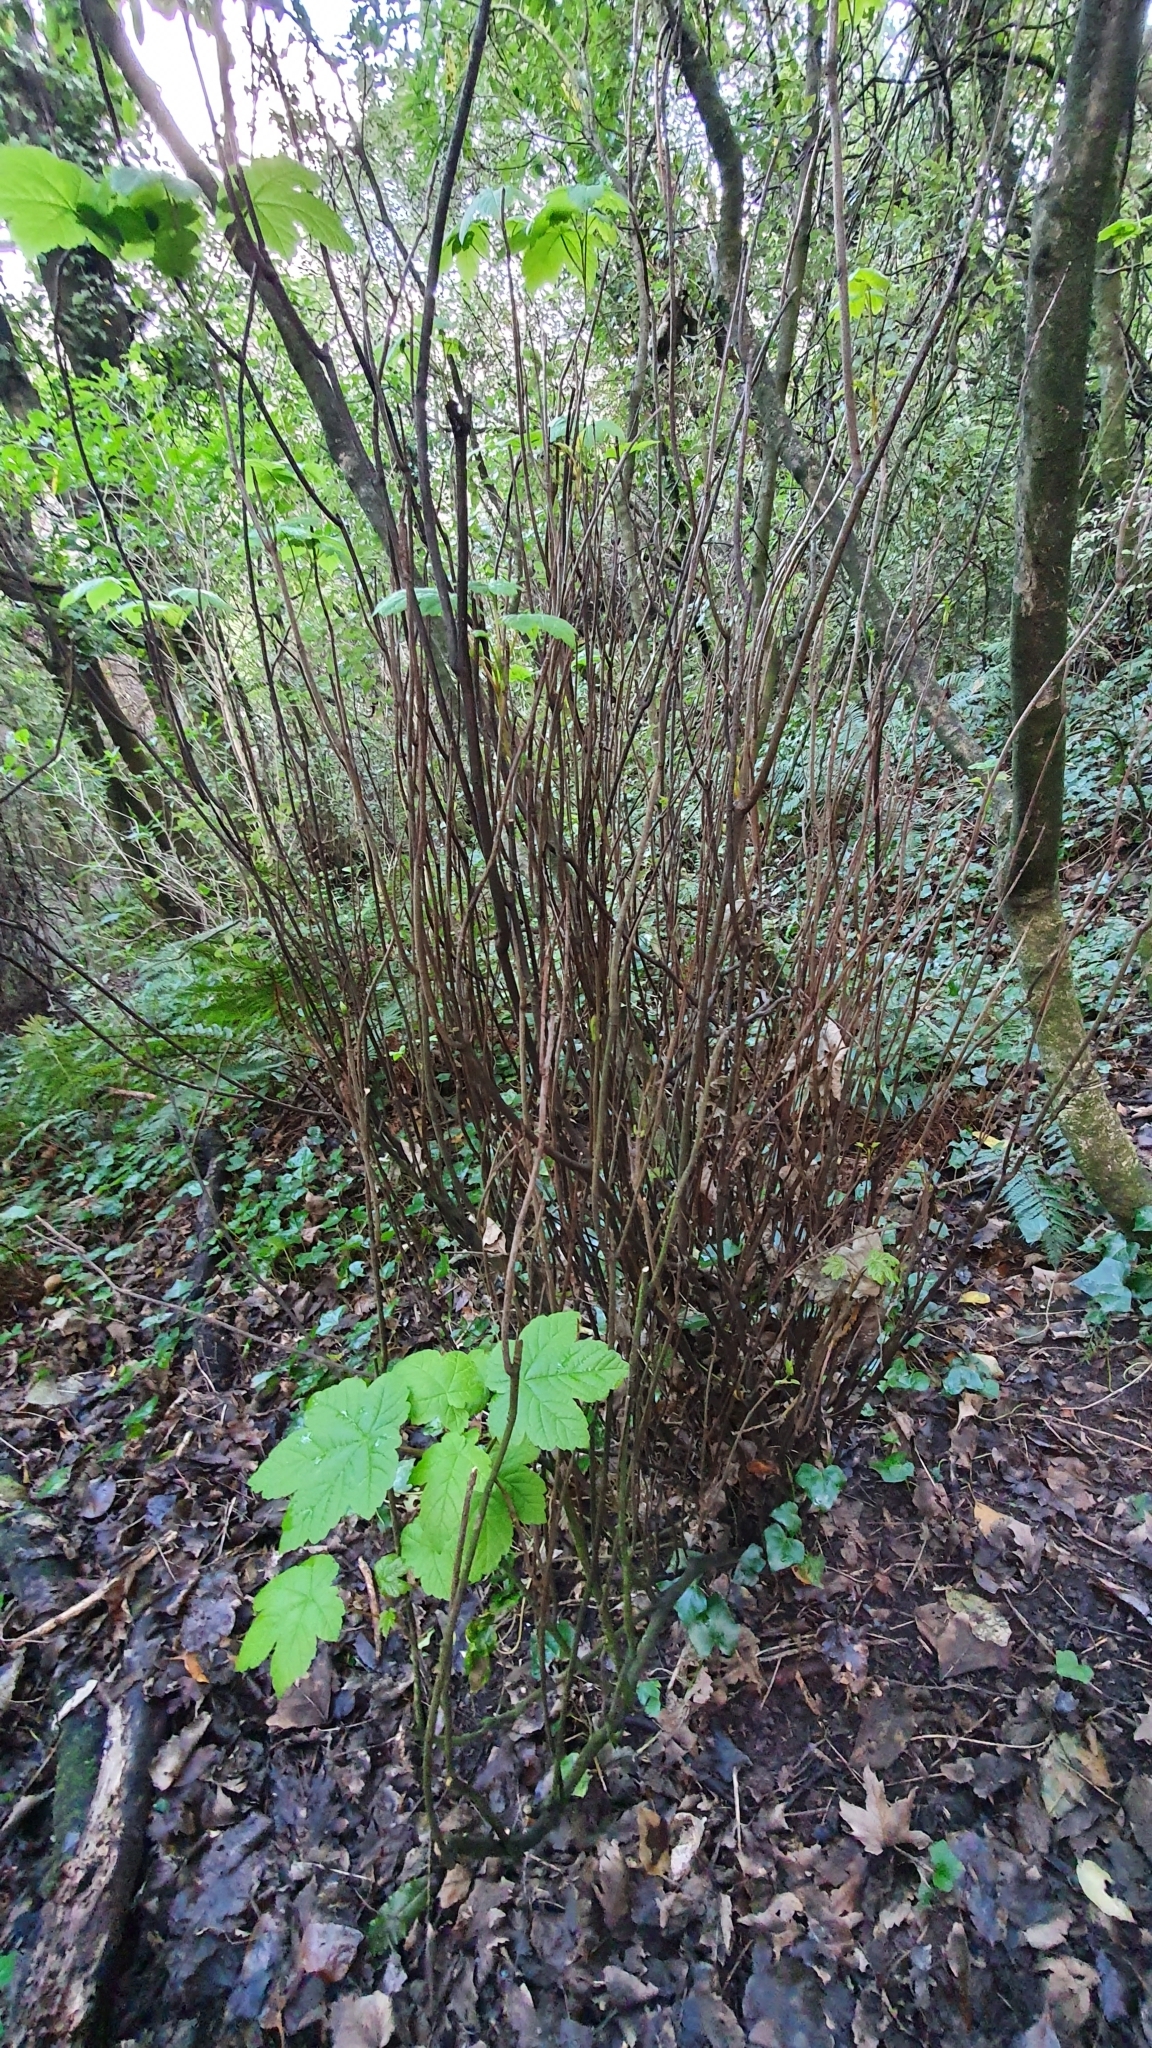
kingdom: Plantae
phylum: Tracheophyta
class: Magnoliopsida
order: Sapindales
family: Sapindaceae
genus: Acer
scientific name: Acer pseudoplatanus
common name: Sycamore
